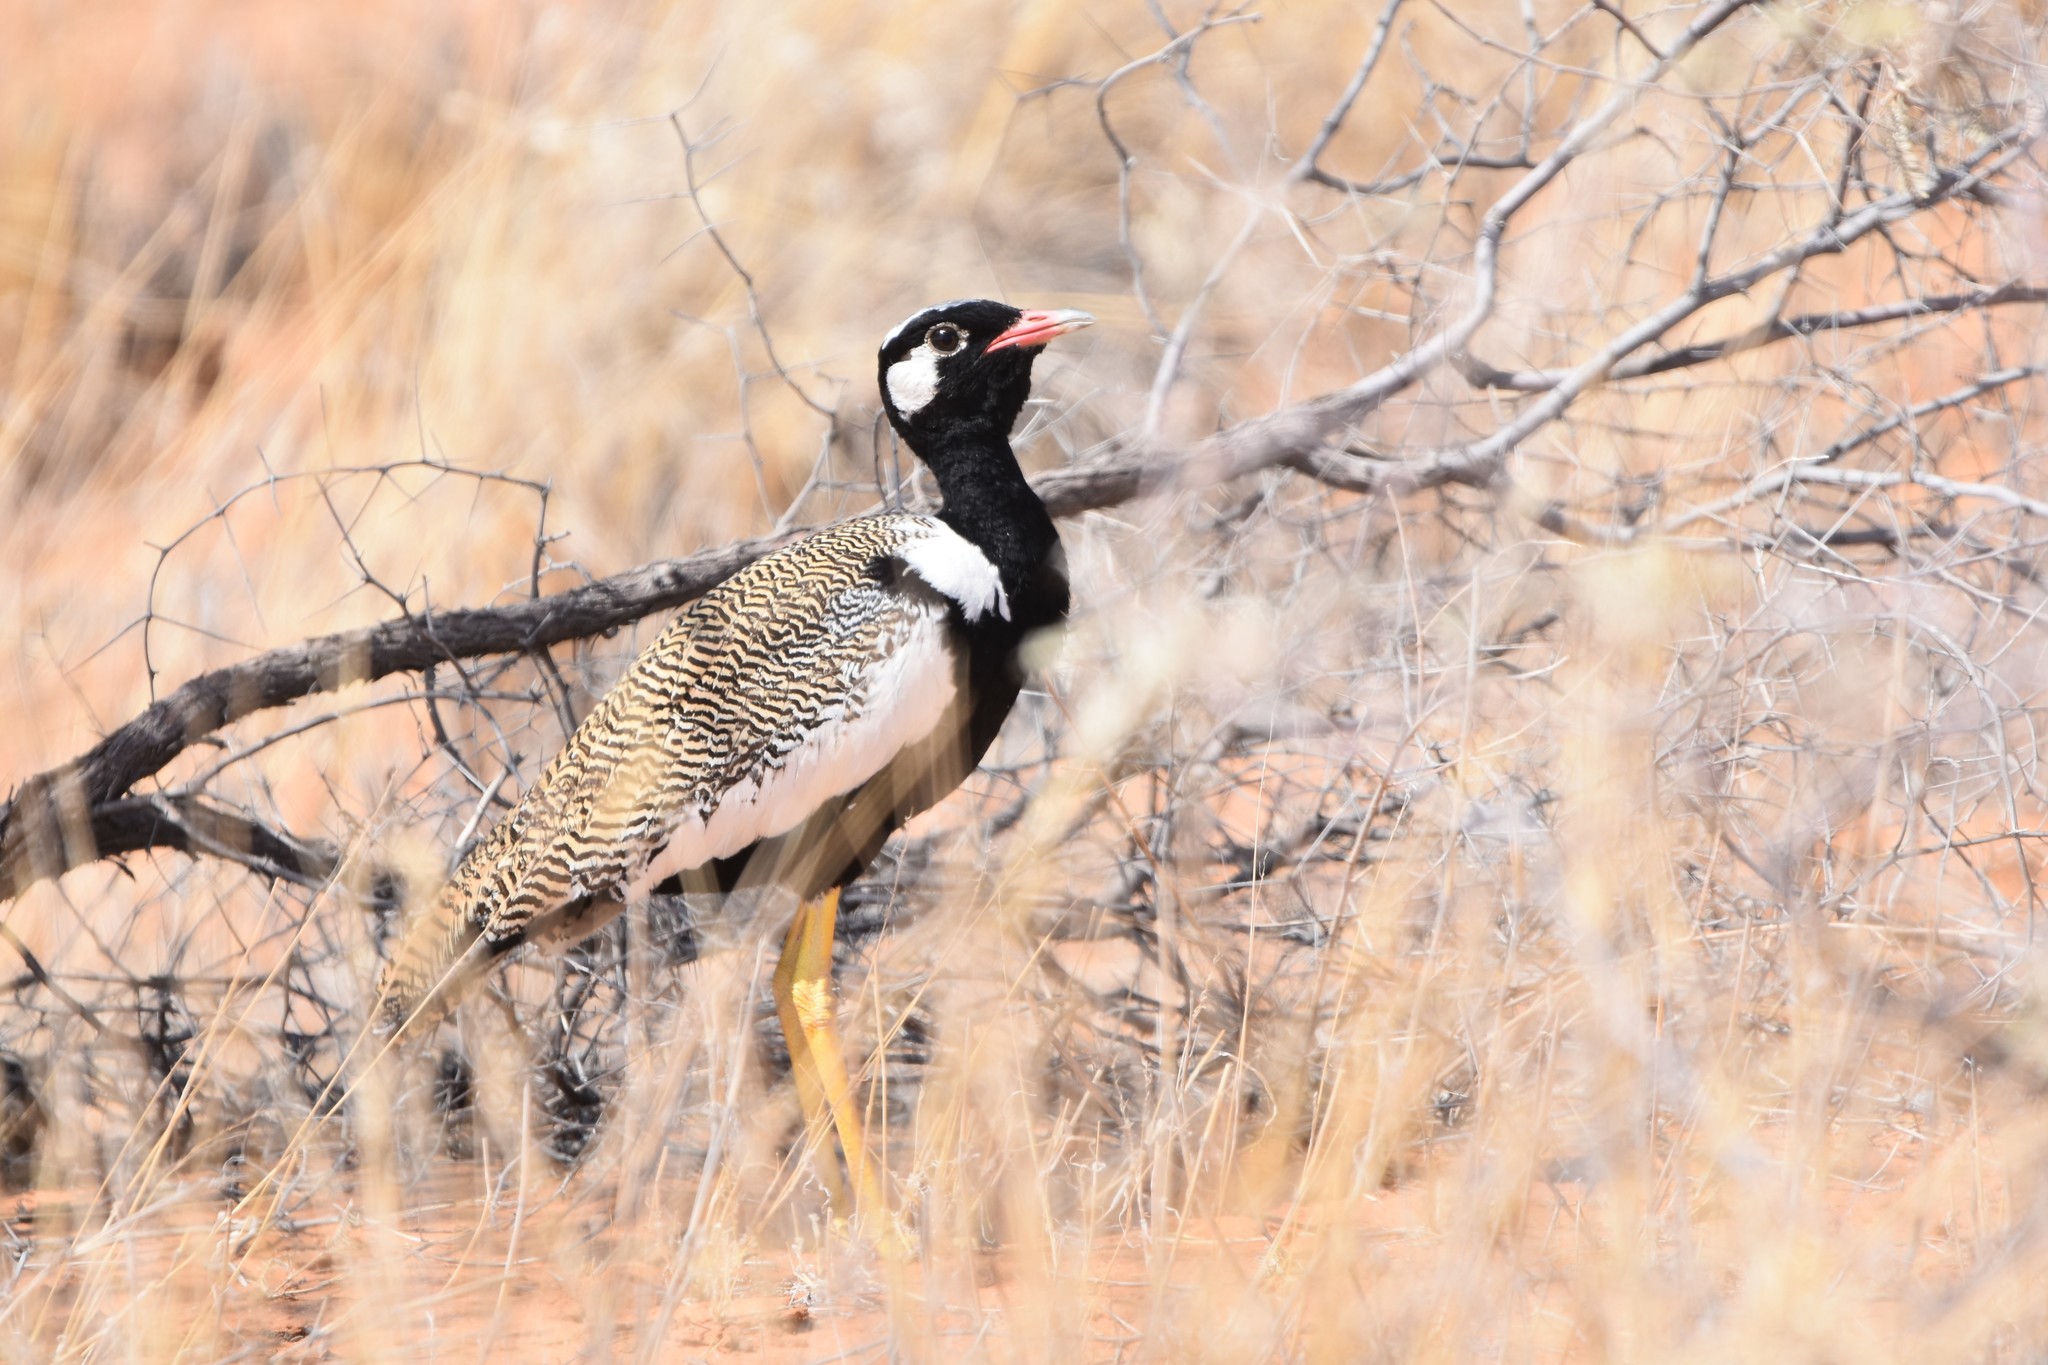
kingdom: Animalia
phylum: Chordata
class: Aves
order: Otidiformes
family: Otididae
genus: Afrotis
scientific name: Afrotis afraoides
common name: Northern black korhaan
